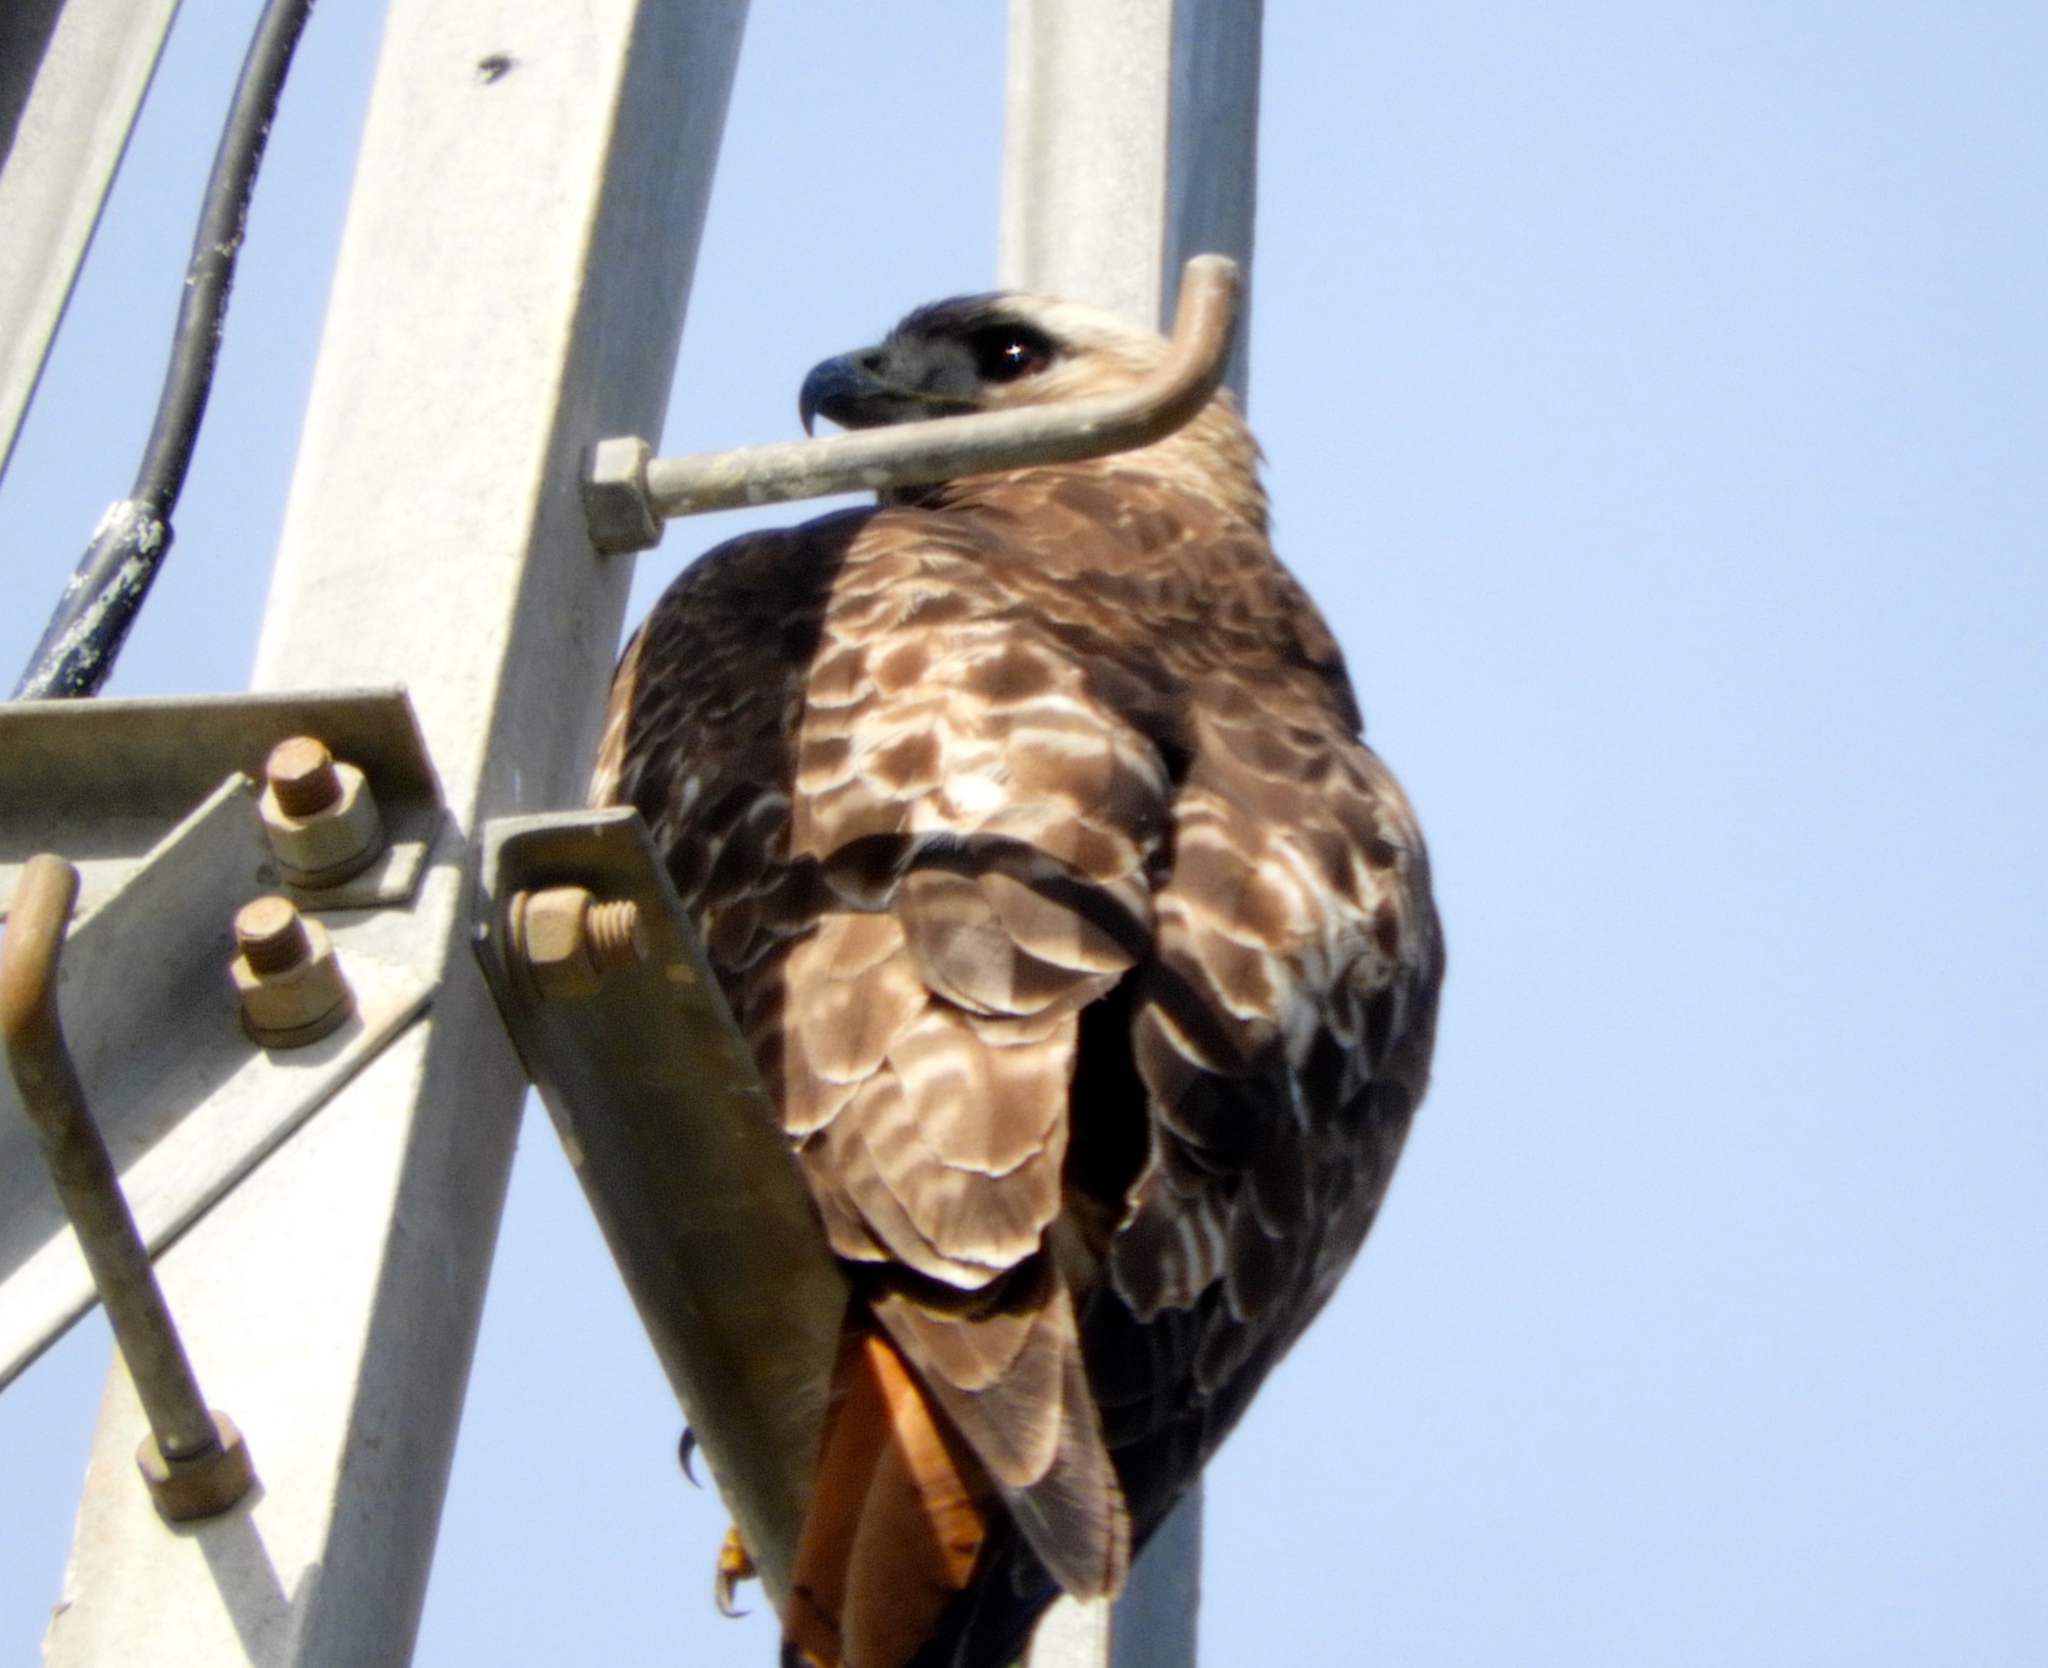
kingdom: Animalia
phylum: Chordata
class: Aves
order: Accipitriformes
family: Accipitridae
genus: Buteo
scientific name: Buteo jamaicensis
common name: Red-tailed hawk
